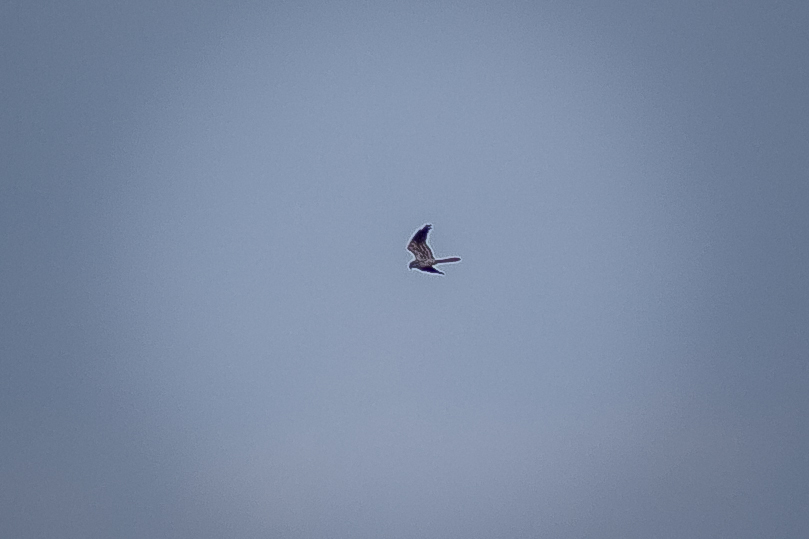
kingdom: Animalia
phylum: Chordata
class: Aves
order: Accipitriformes
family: Accipitridae
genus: Circus
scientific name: Circus pygargus
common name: Montagu's harrier
